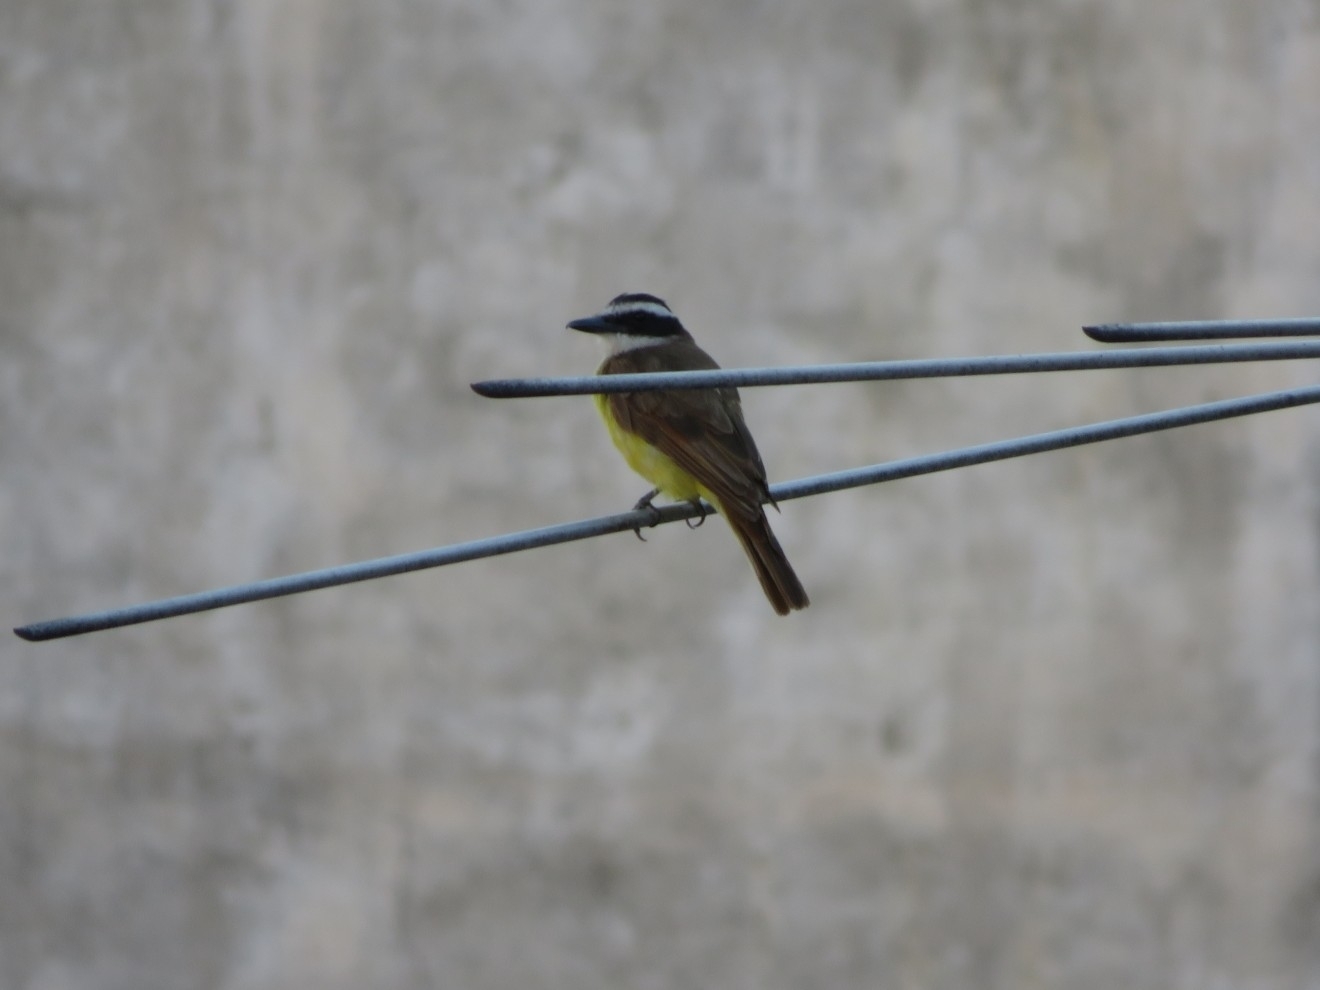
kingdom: Animalia
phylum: Chordata
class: Aves
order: Passeriformes
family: Tyrannidae
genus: Pitangus
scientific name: Pitangus sulphuratus
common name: Great kiskadee
